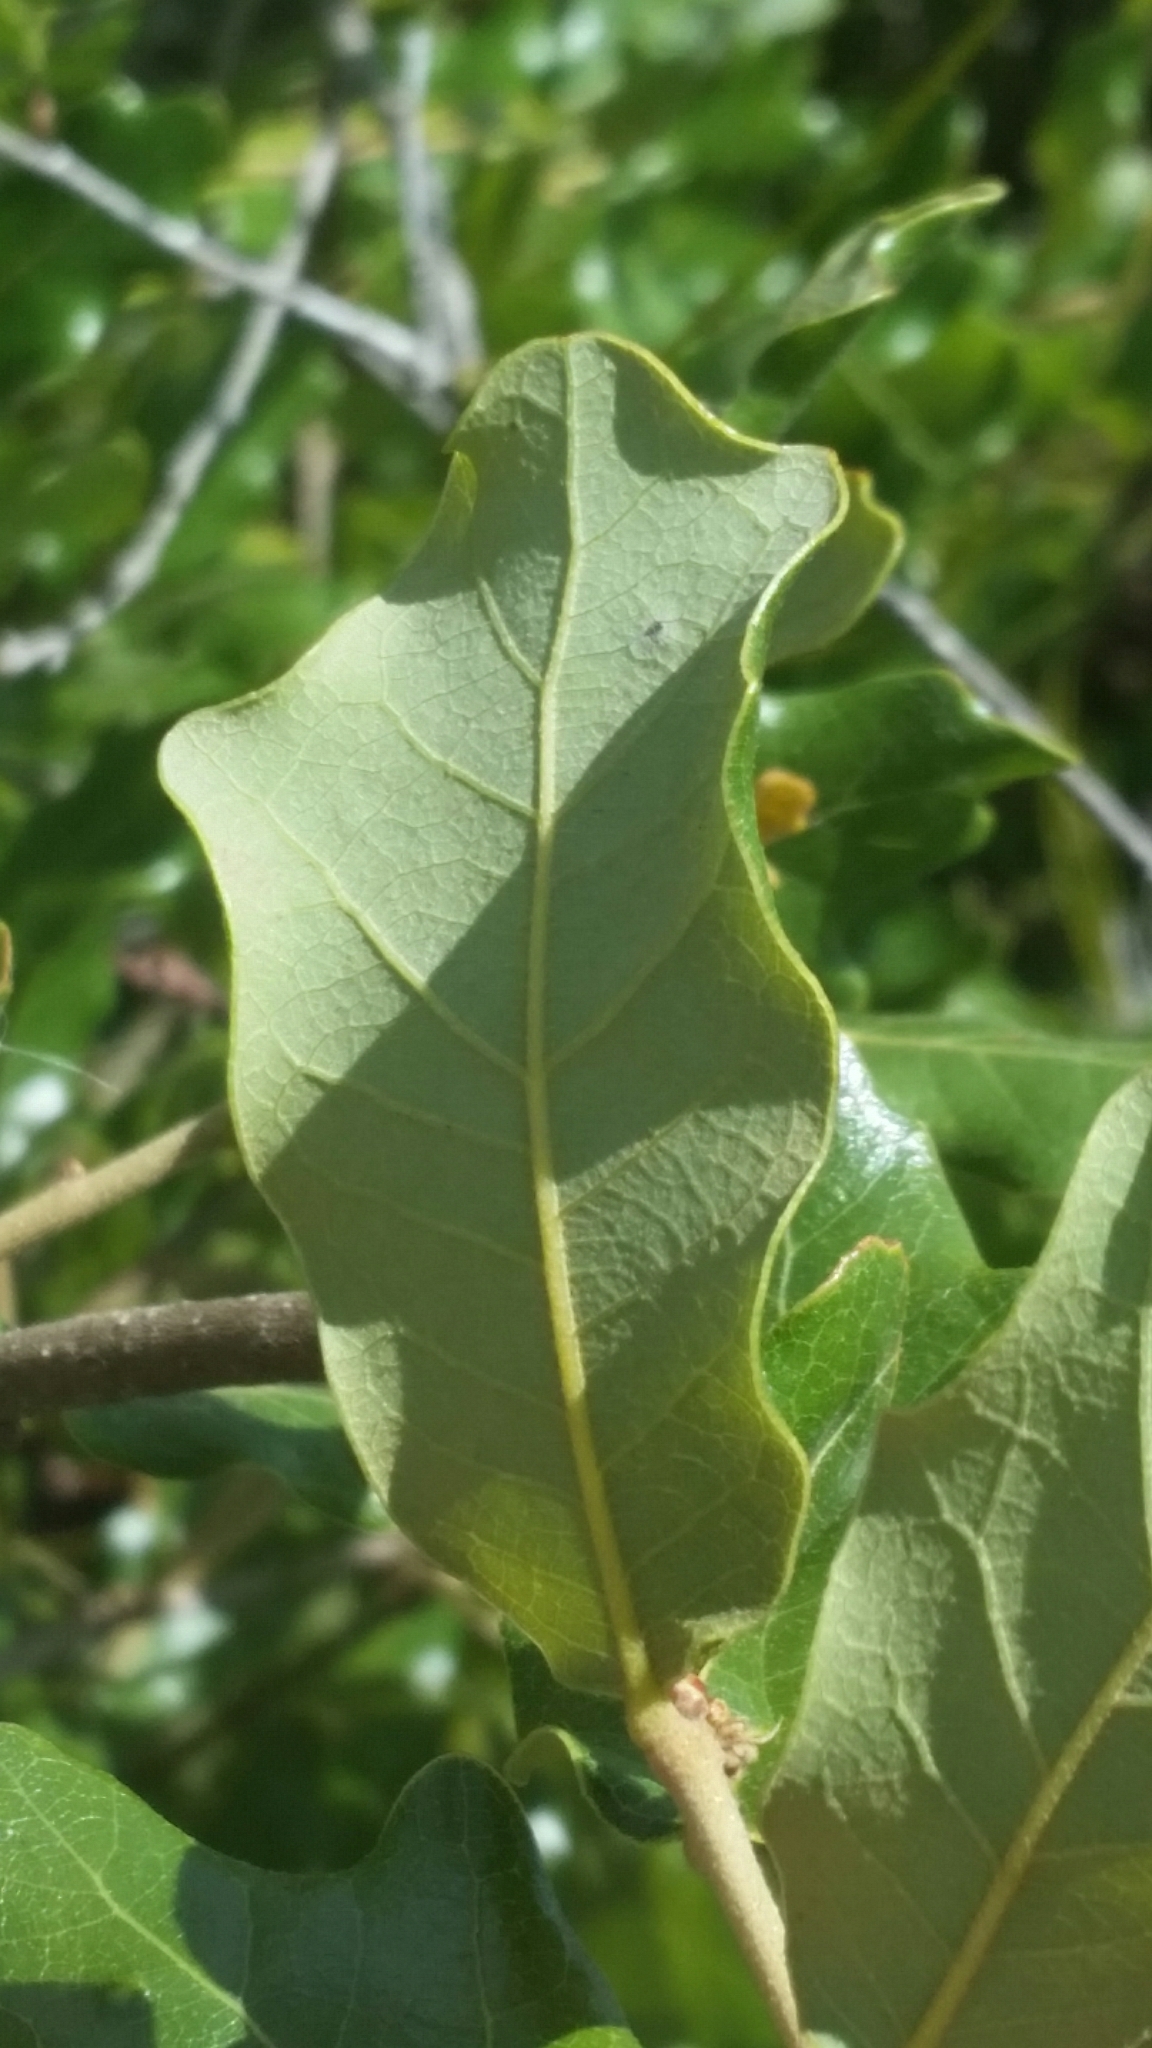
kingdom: Plantae
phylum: Tracheophyta
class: Magnoliopsida
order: Fagales
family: Fagaceae
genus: Quercus
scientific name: Quercus chapmanii
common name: Chapman oak
